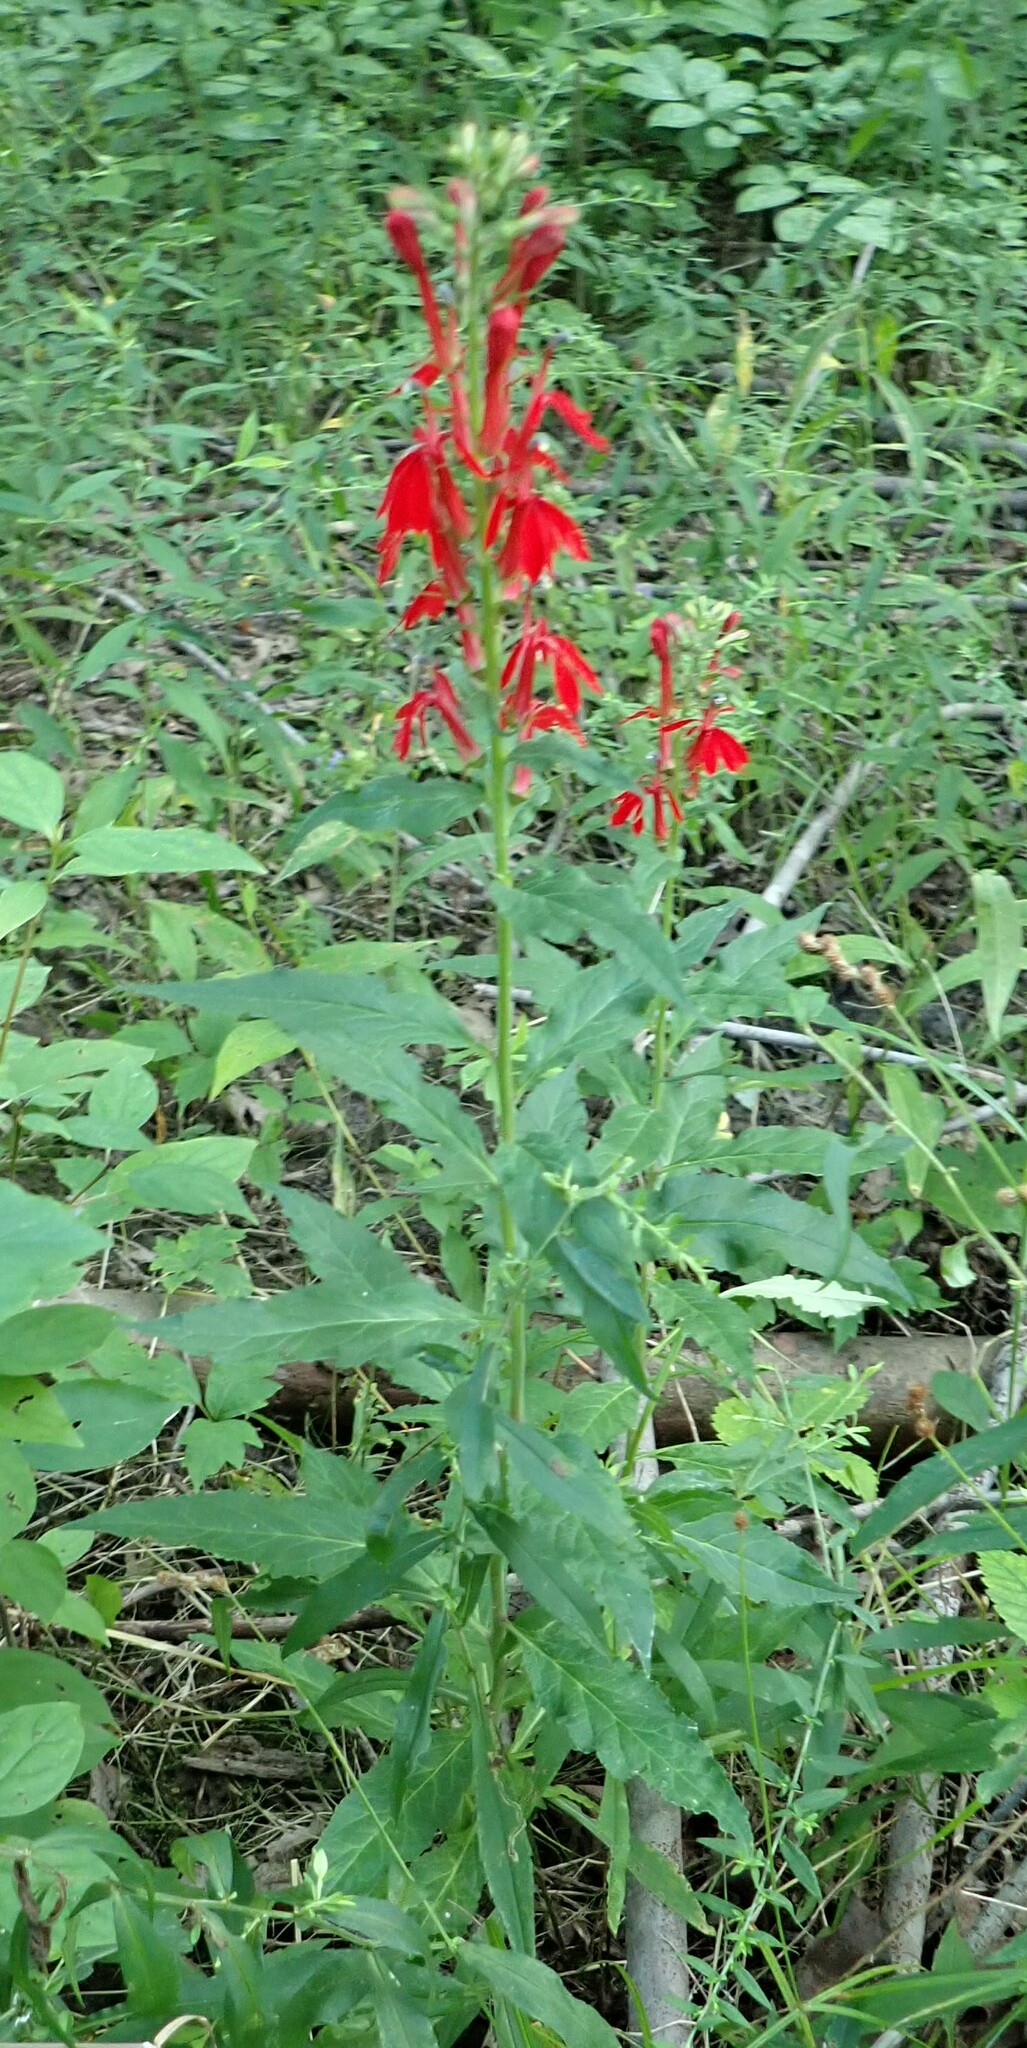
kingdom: Plantae
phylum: Tracheophyta
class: Magnoliopsida
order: Asterales
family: Campanulaceae
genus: Lobelia
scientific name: Lobelia cardinalis
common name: Cardinal flower
